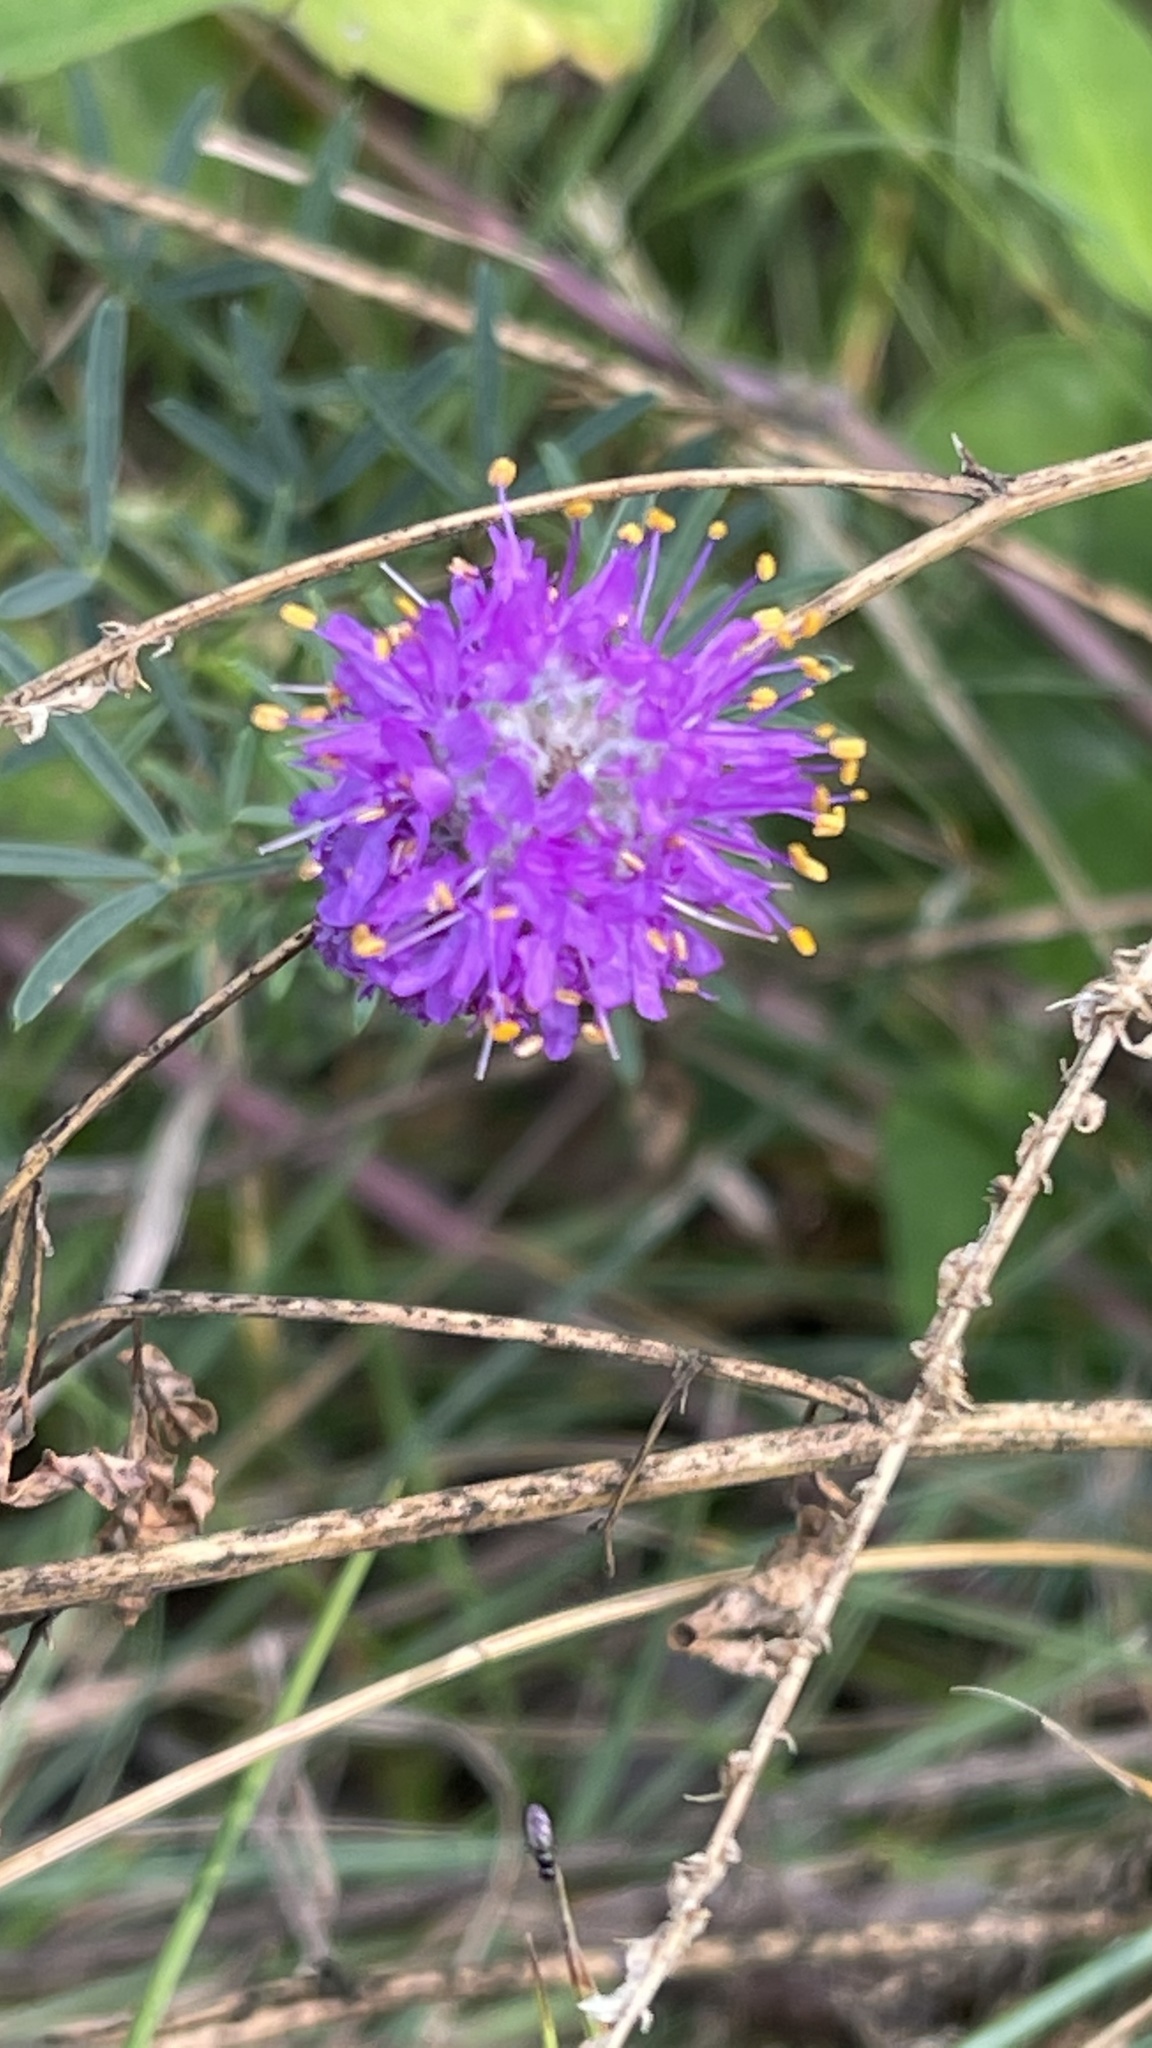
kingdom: Plantae
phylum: Tracheophyta
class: Magnoliopsida
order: Fabales
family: Fabaceae
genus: Dalea
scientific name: Dalea purpurea
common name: Purple prairie-clover
